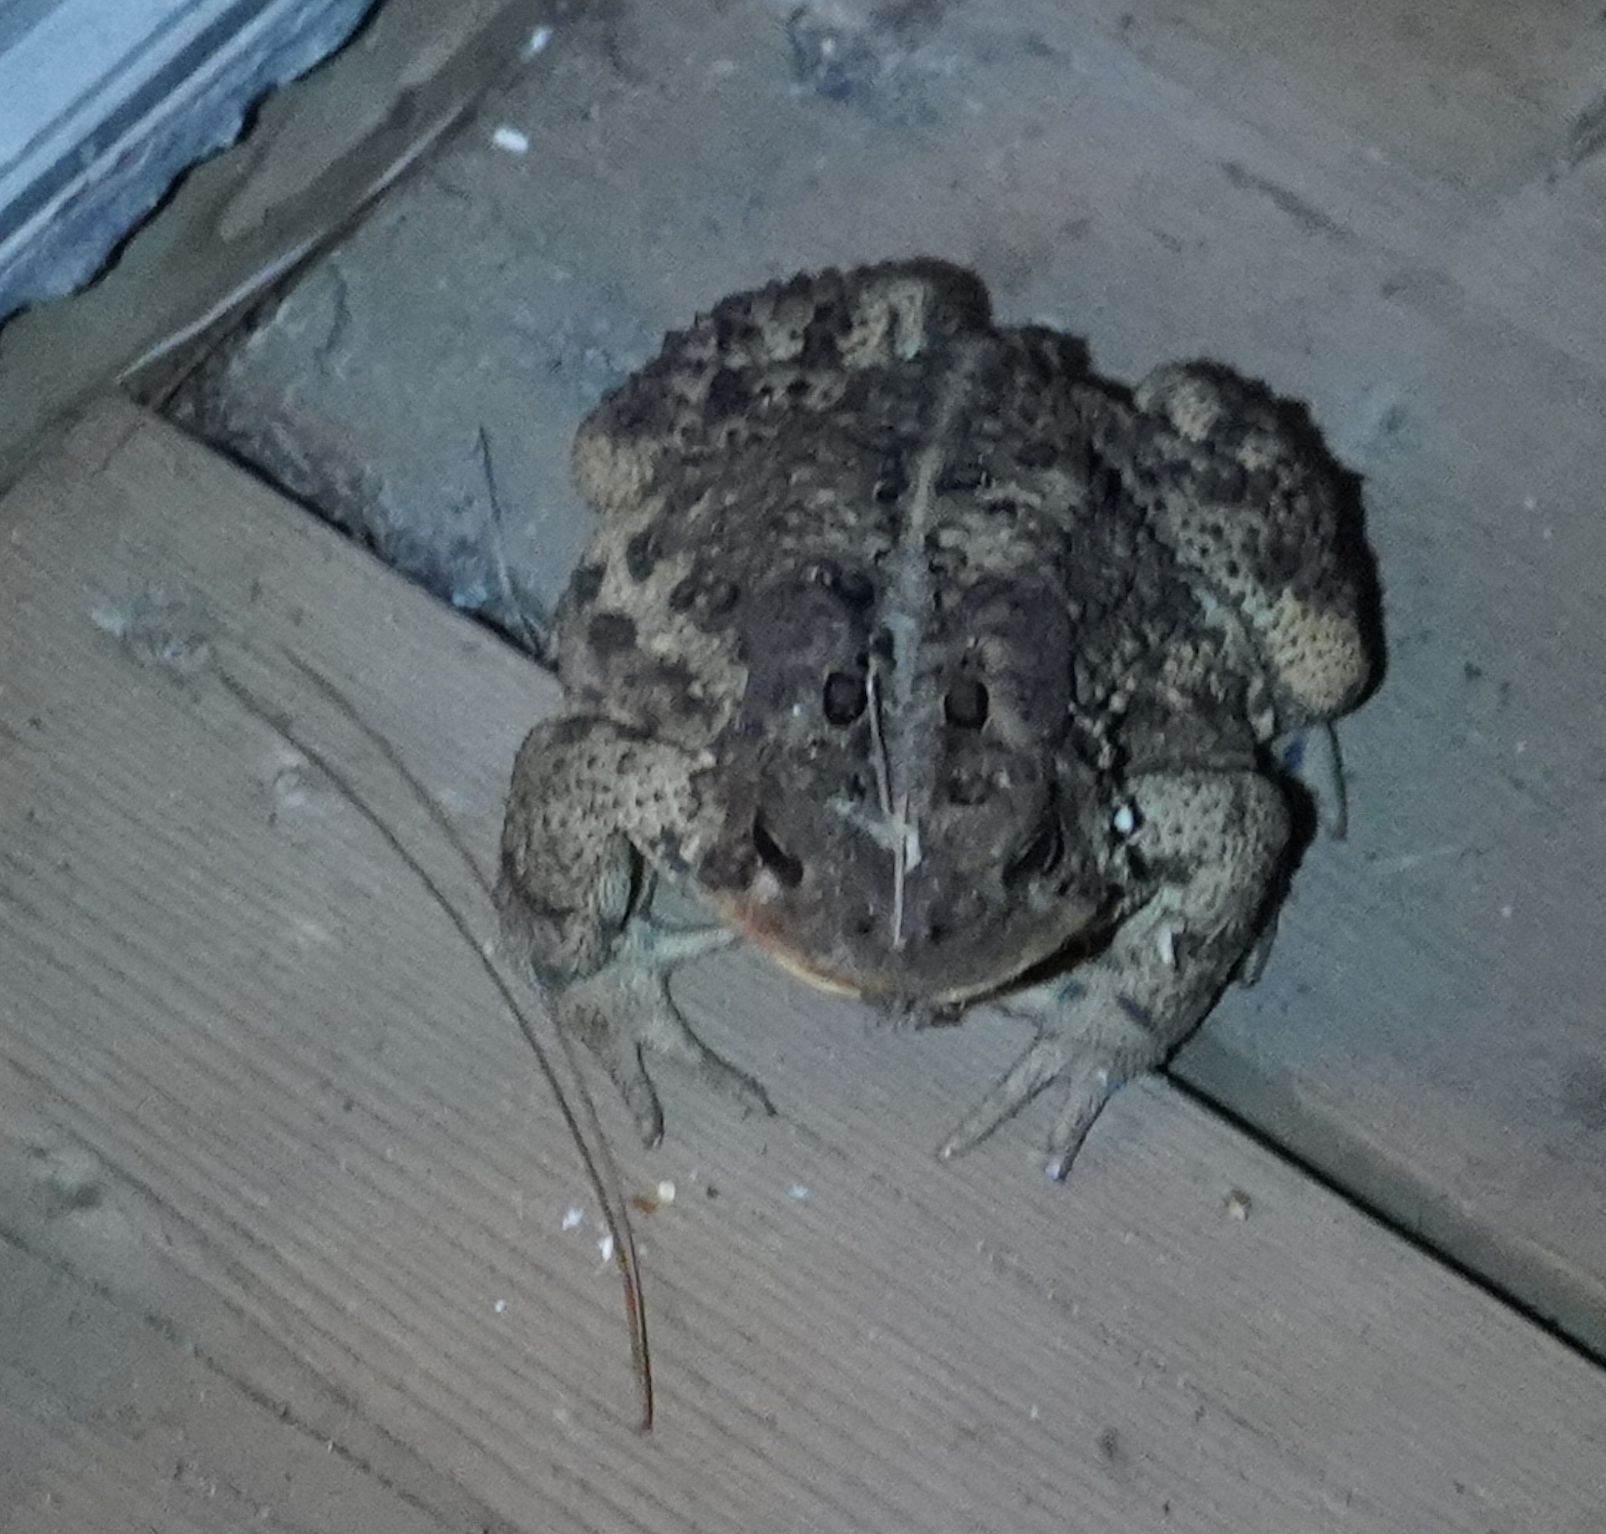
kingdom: Animalia
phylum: Chordata
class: Amphibia
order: Anura
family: Bufonidae
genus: Anaxyrus
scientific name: Anaxyrus americanus
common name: American toad
